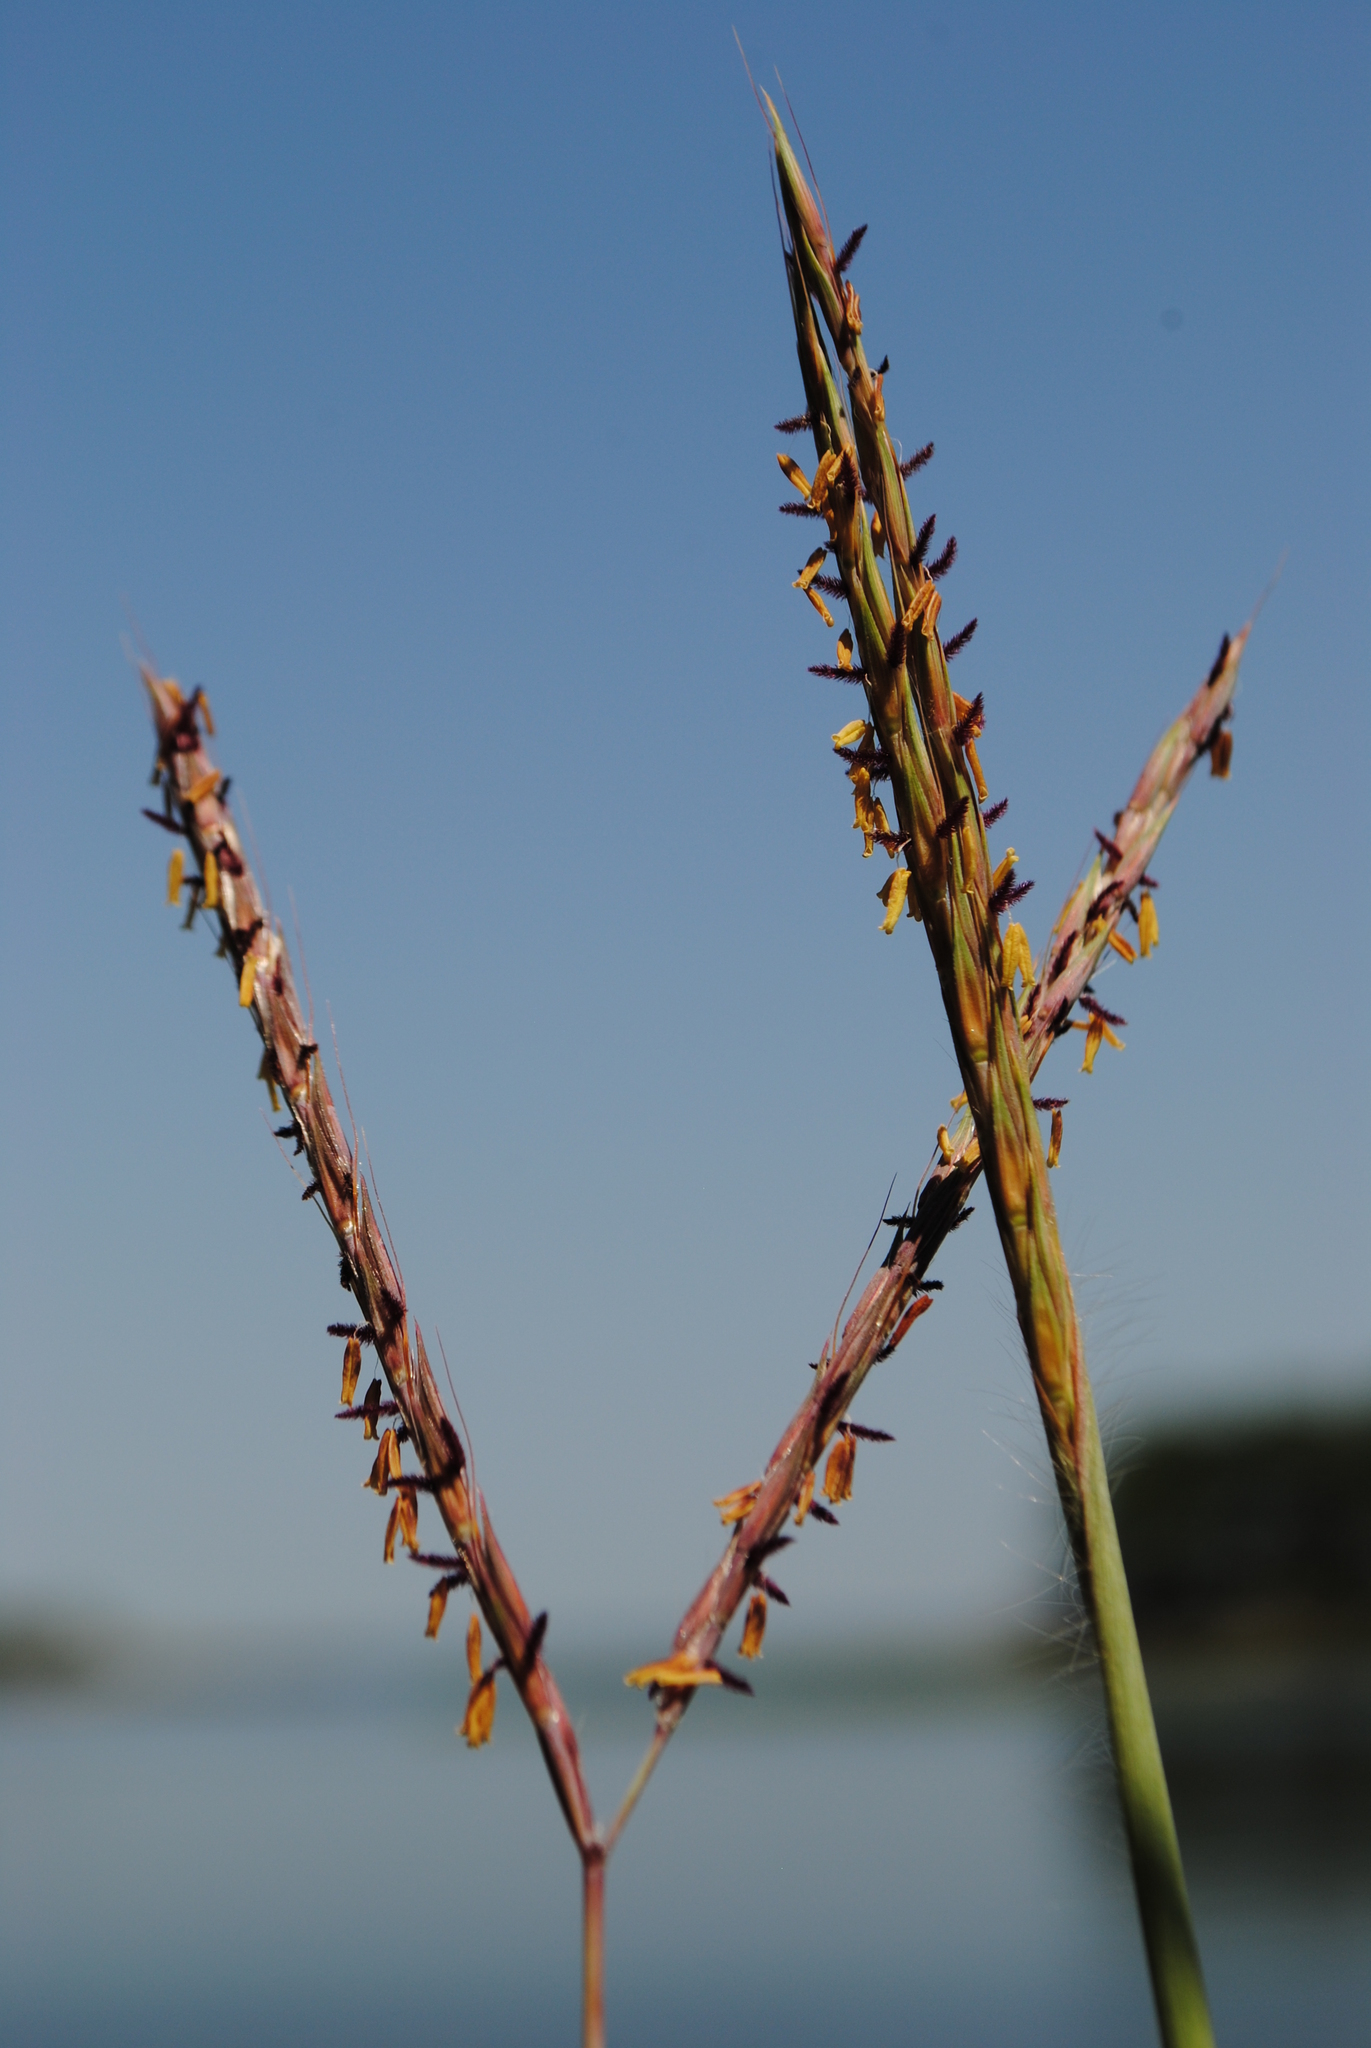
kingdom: Plantae
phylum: Tracheophyta
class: Liliopsida
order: Poales
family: Poaceae
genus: Andropogon
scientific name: Andropogon gerardi
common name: Big bluestem
